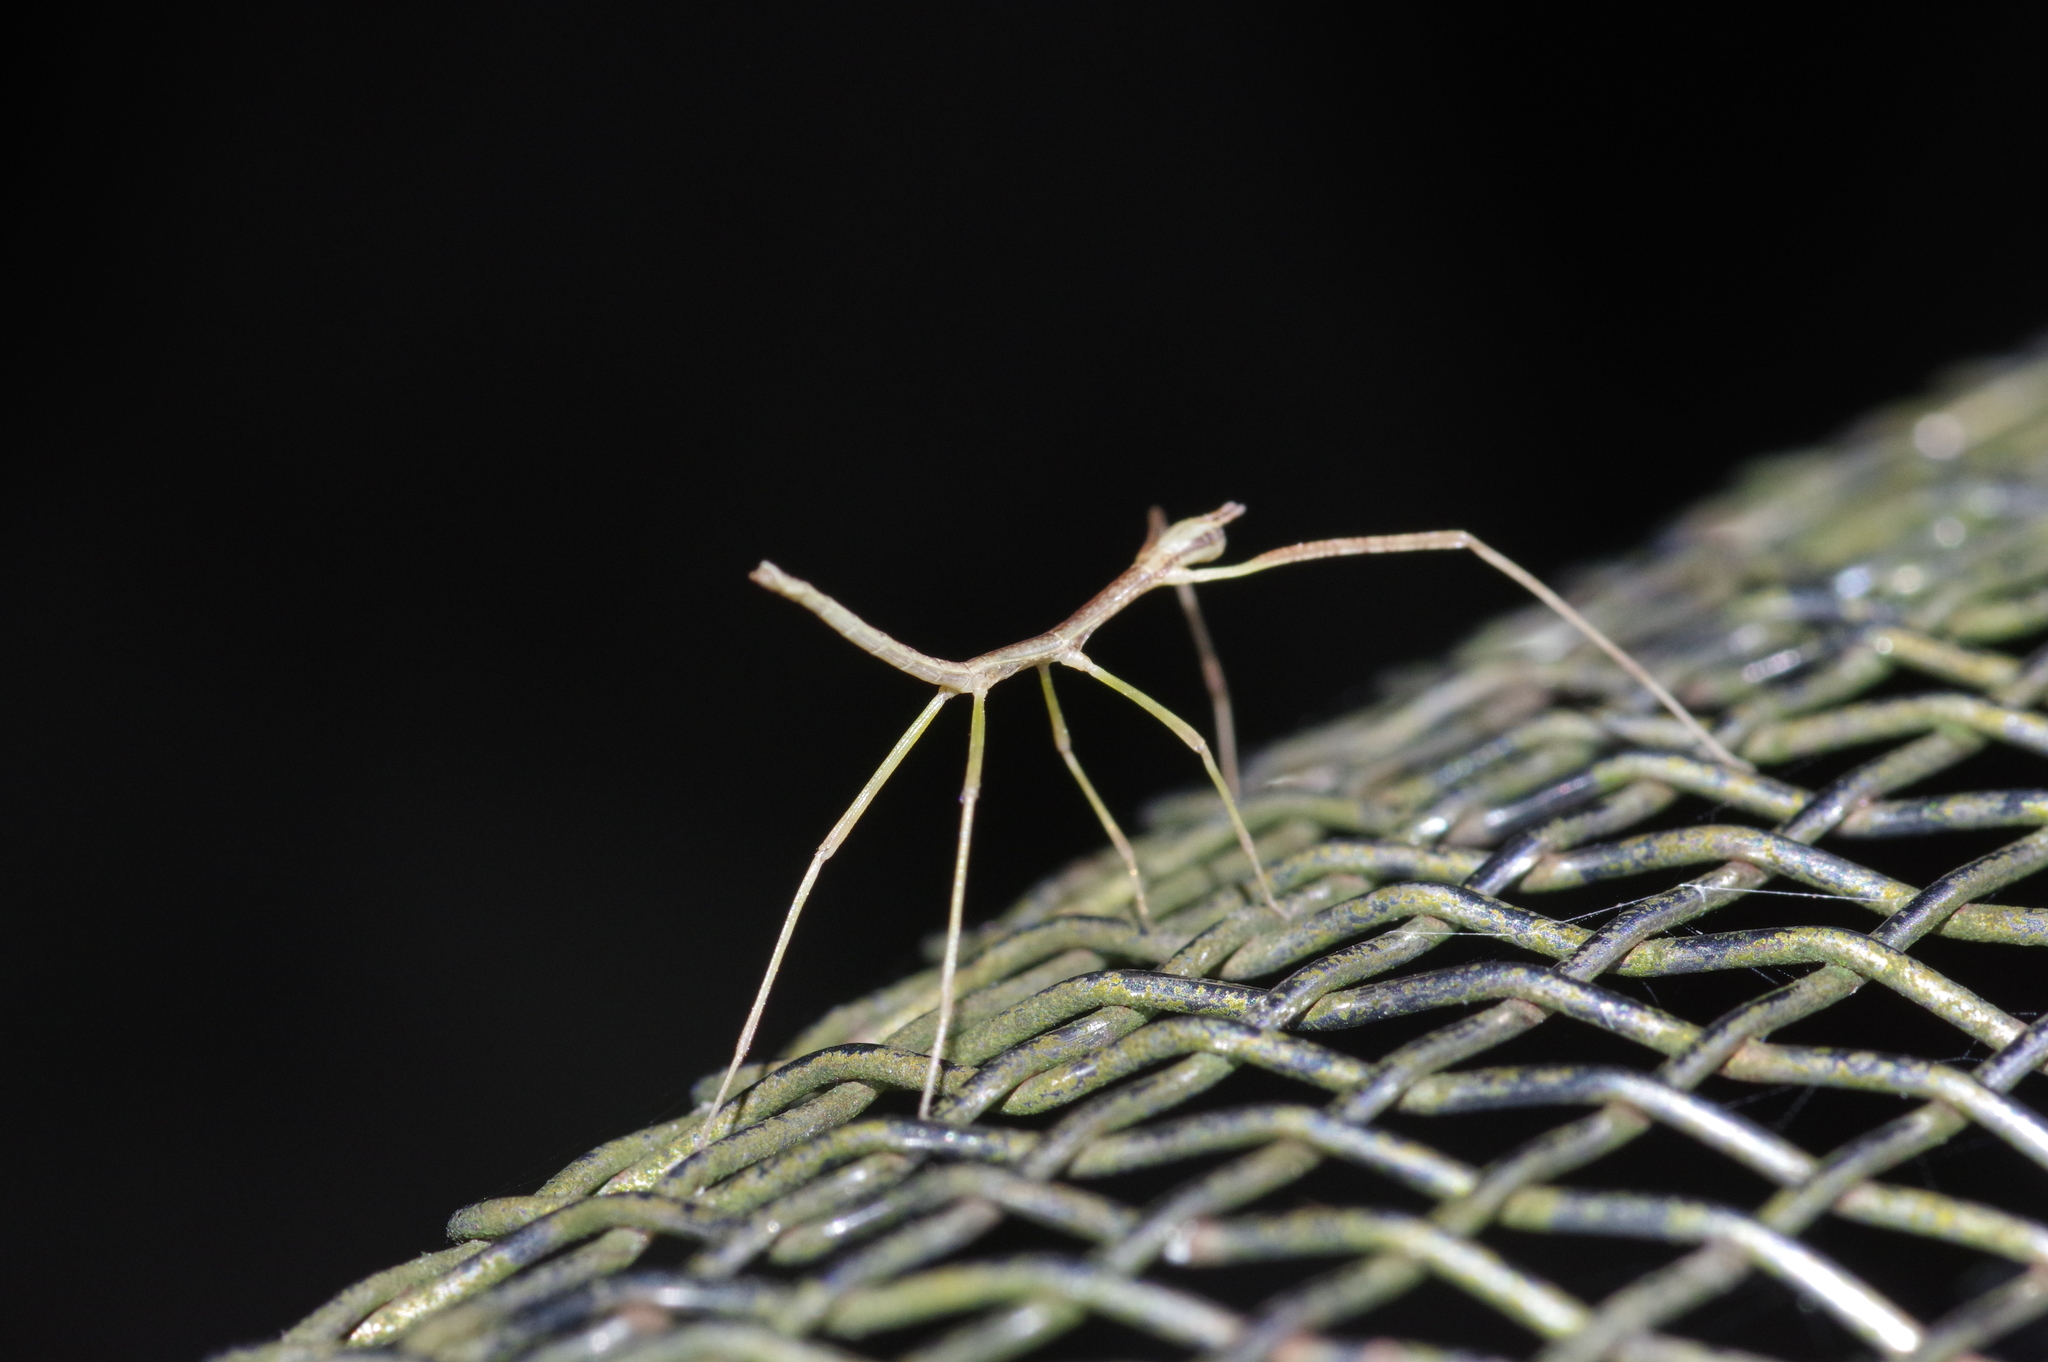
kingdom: Animalia
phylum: Arthropoda
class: Insecta
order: Phasmida
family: Phasmatidae
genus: Entoria
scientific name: Entoria miyakoensis
